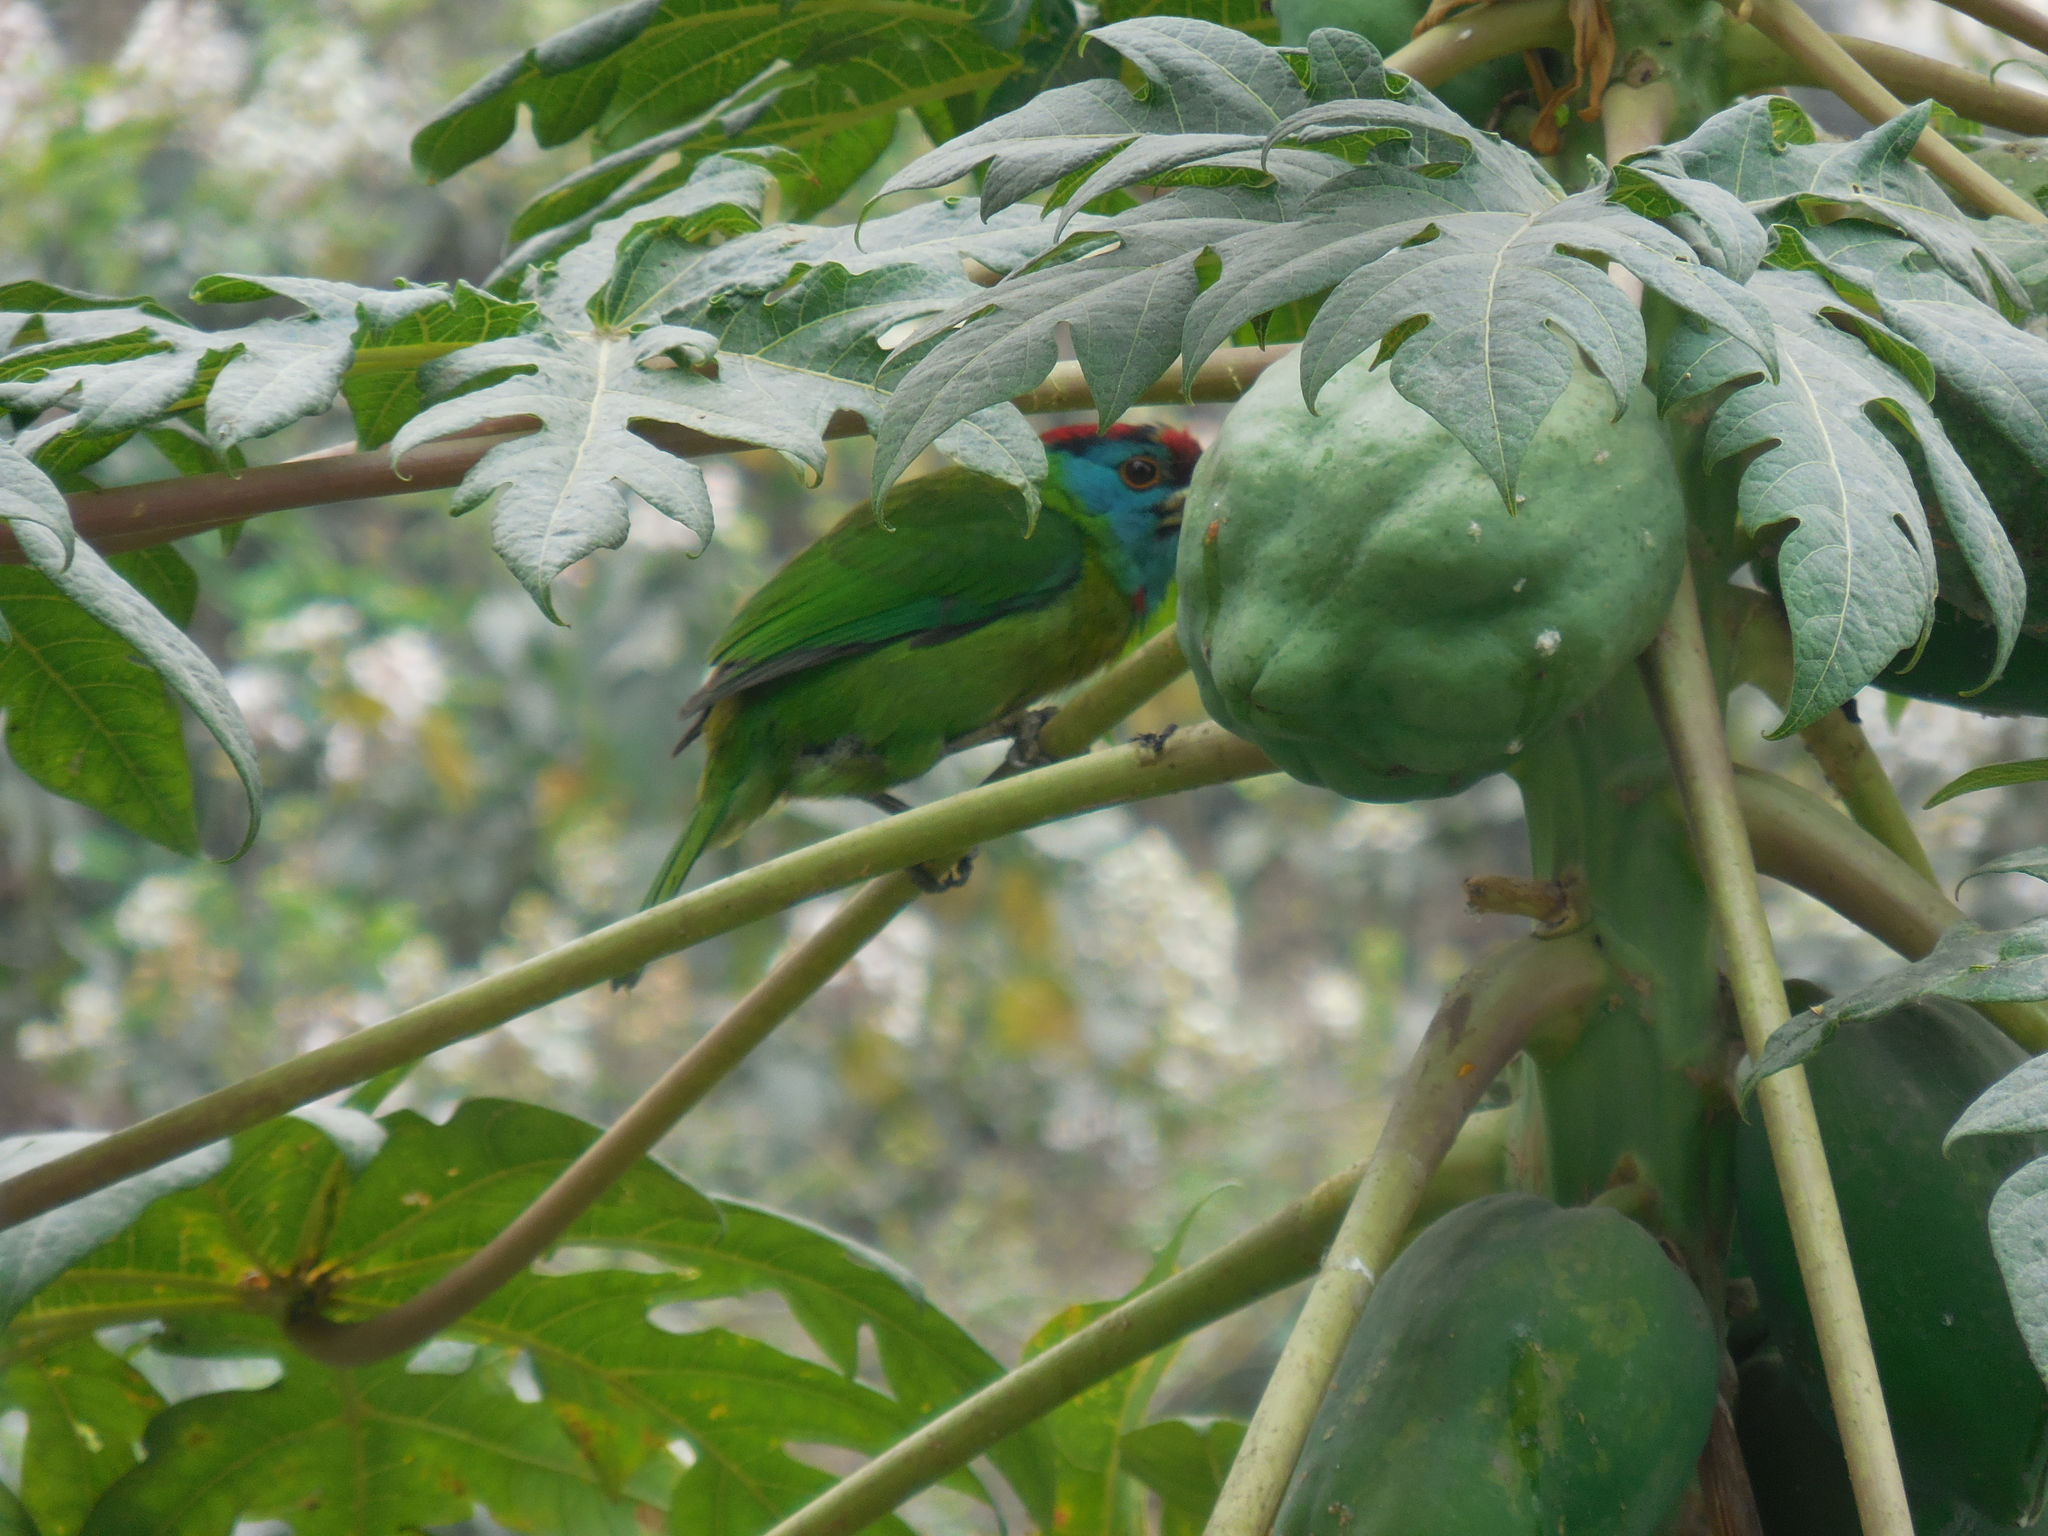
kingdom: Animalia
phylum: Chordata
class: Aves
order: Piciformes
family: Megalaimidae
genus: Psilopogon
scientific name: Psilopogon asiaticus
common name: Blue-throated barbet
